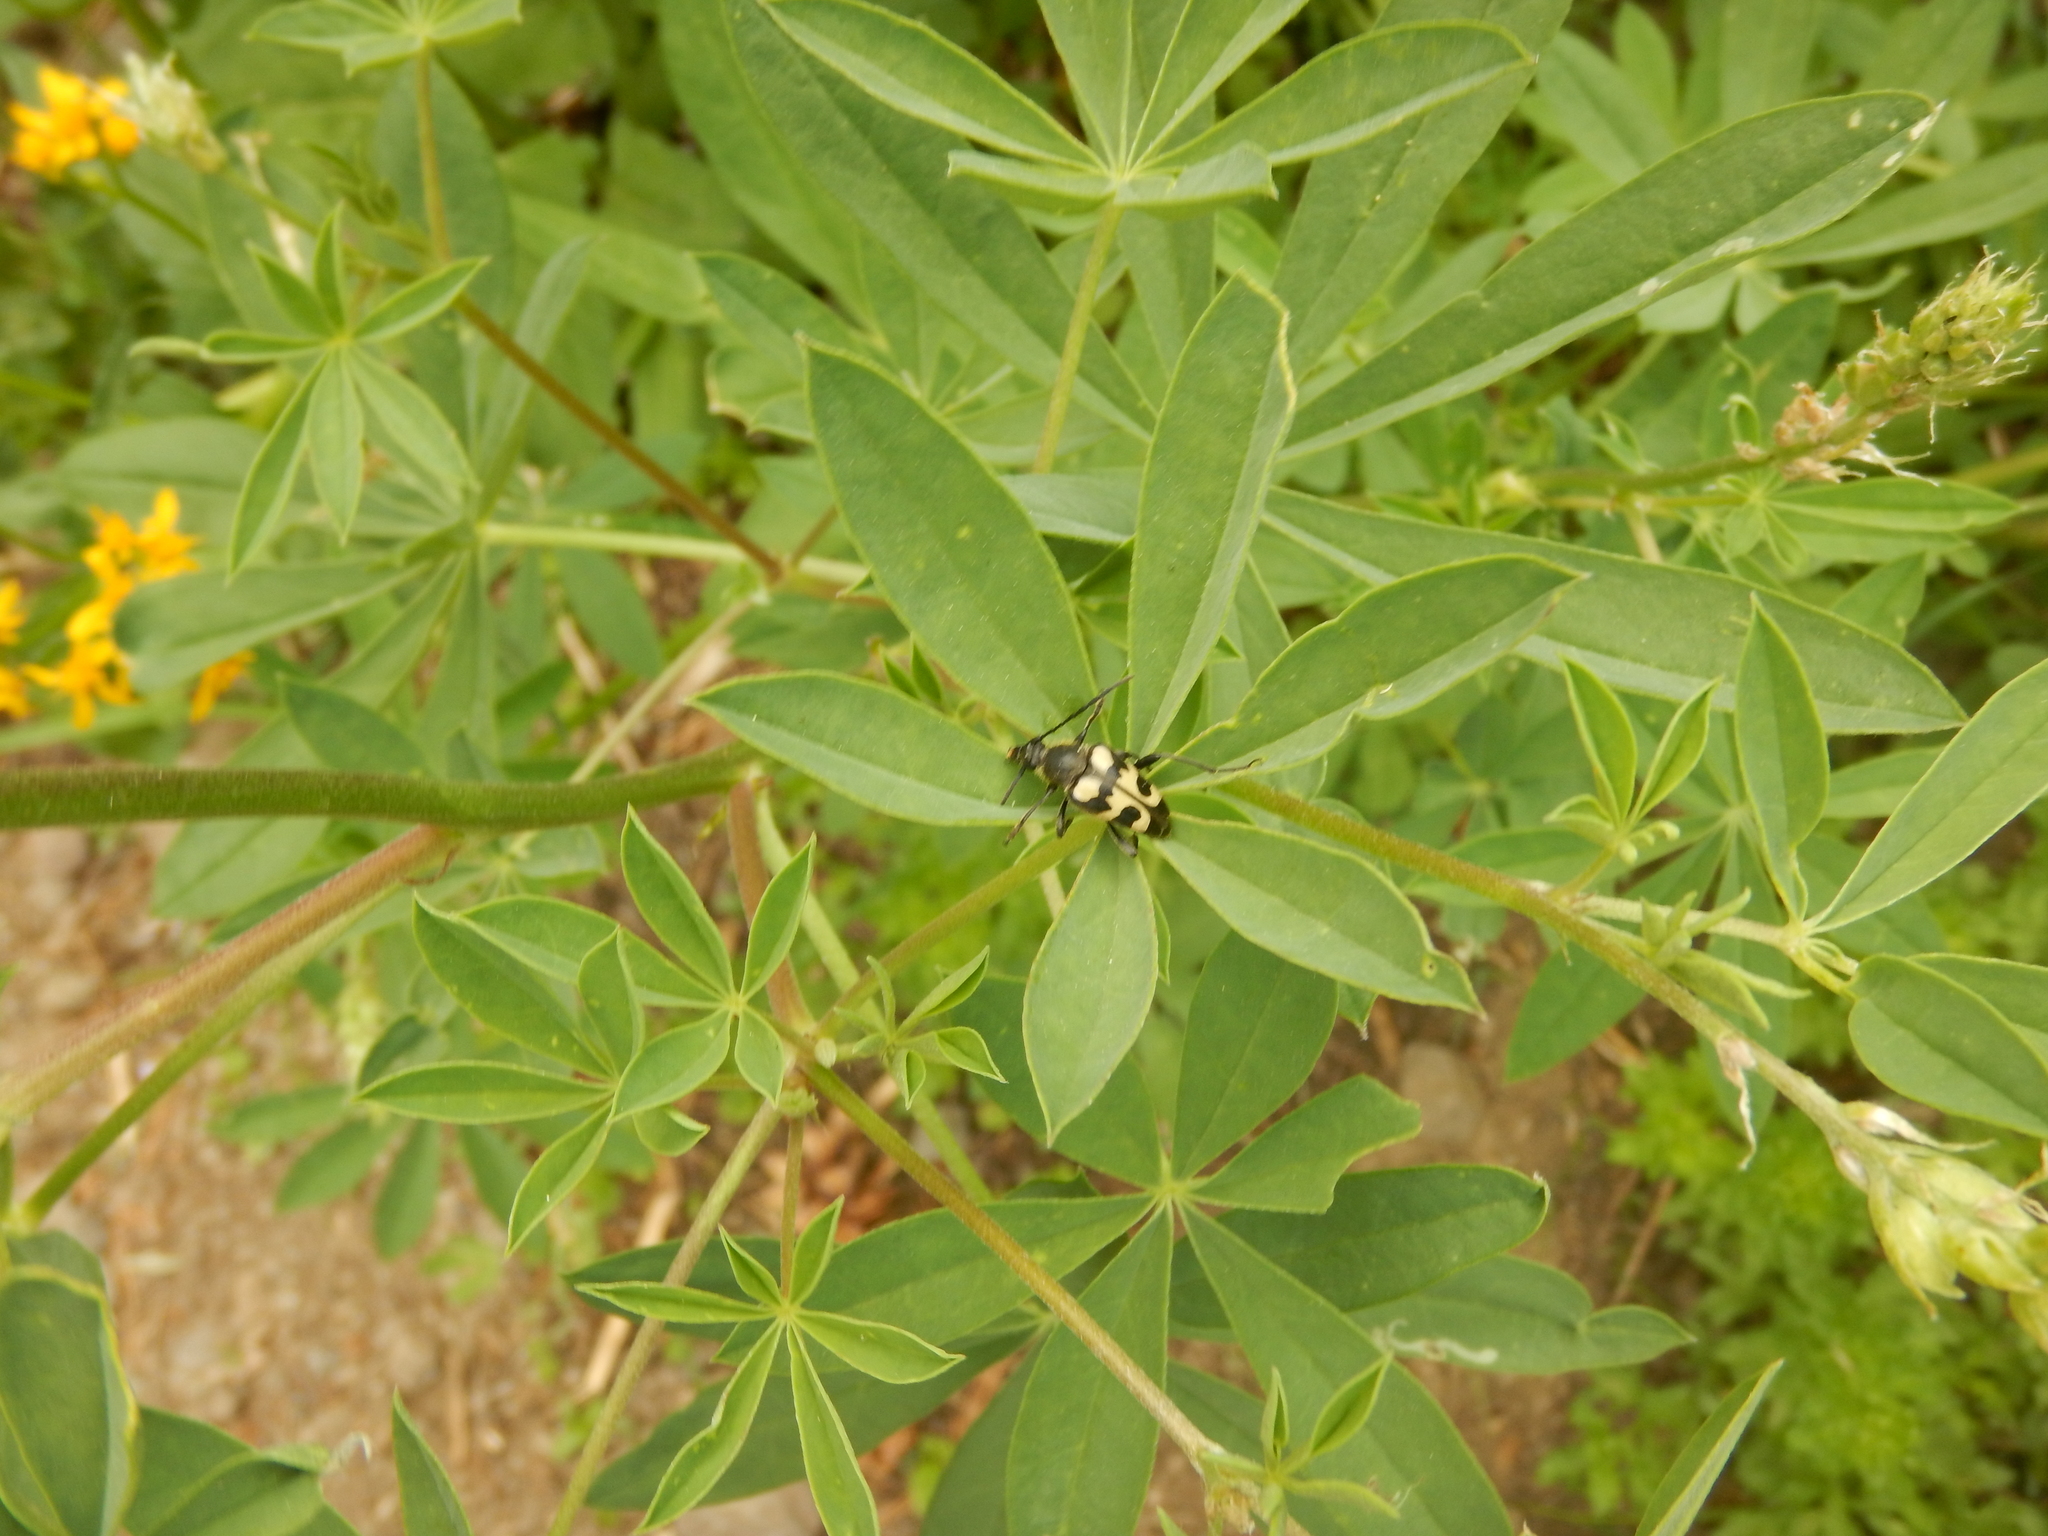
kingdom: Animalia
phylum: Arthropoda
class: Insecta
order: Coleoptera
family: Cerambycidae
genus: Judolia
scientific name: Judolia instabilis
